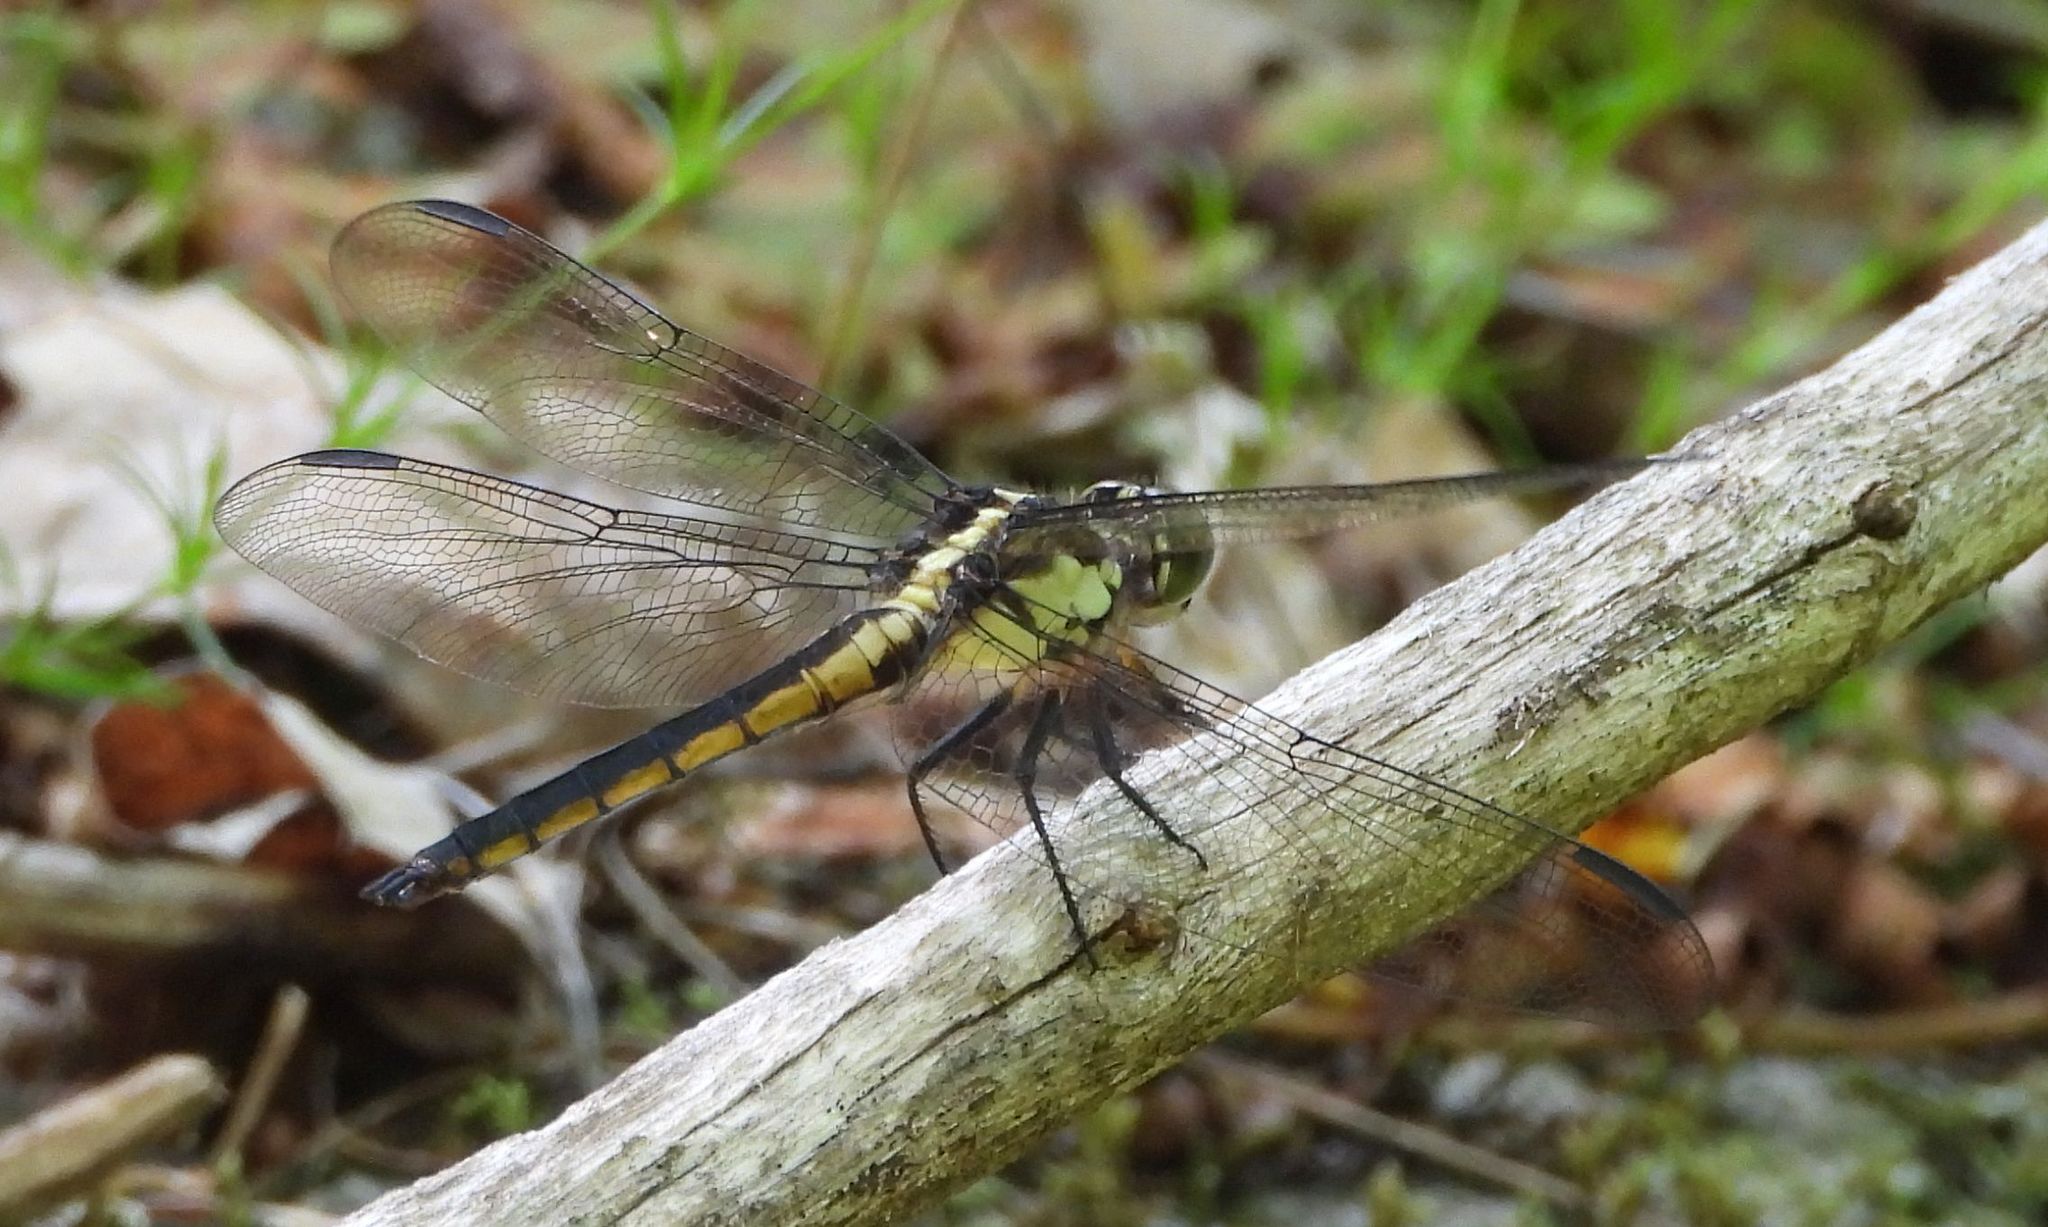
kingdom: Animalia
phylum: Arthropoda
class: Insecta
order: Odonata
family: Libellulidae
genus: Libellula
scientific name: Libellula incesta
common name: Slaty skimmer
